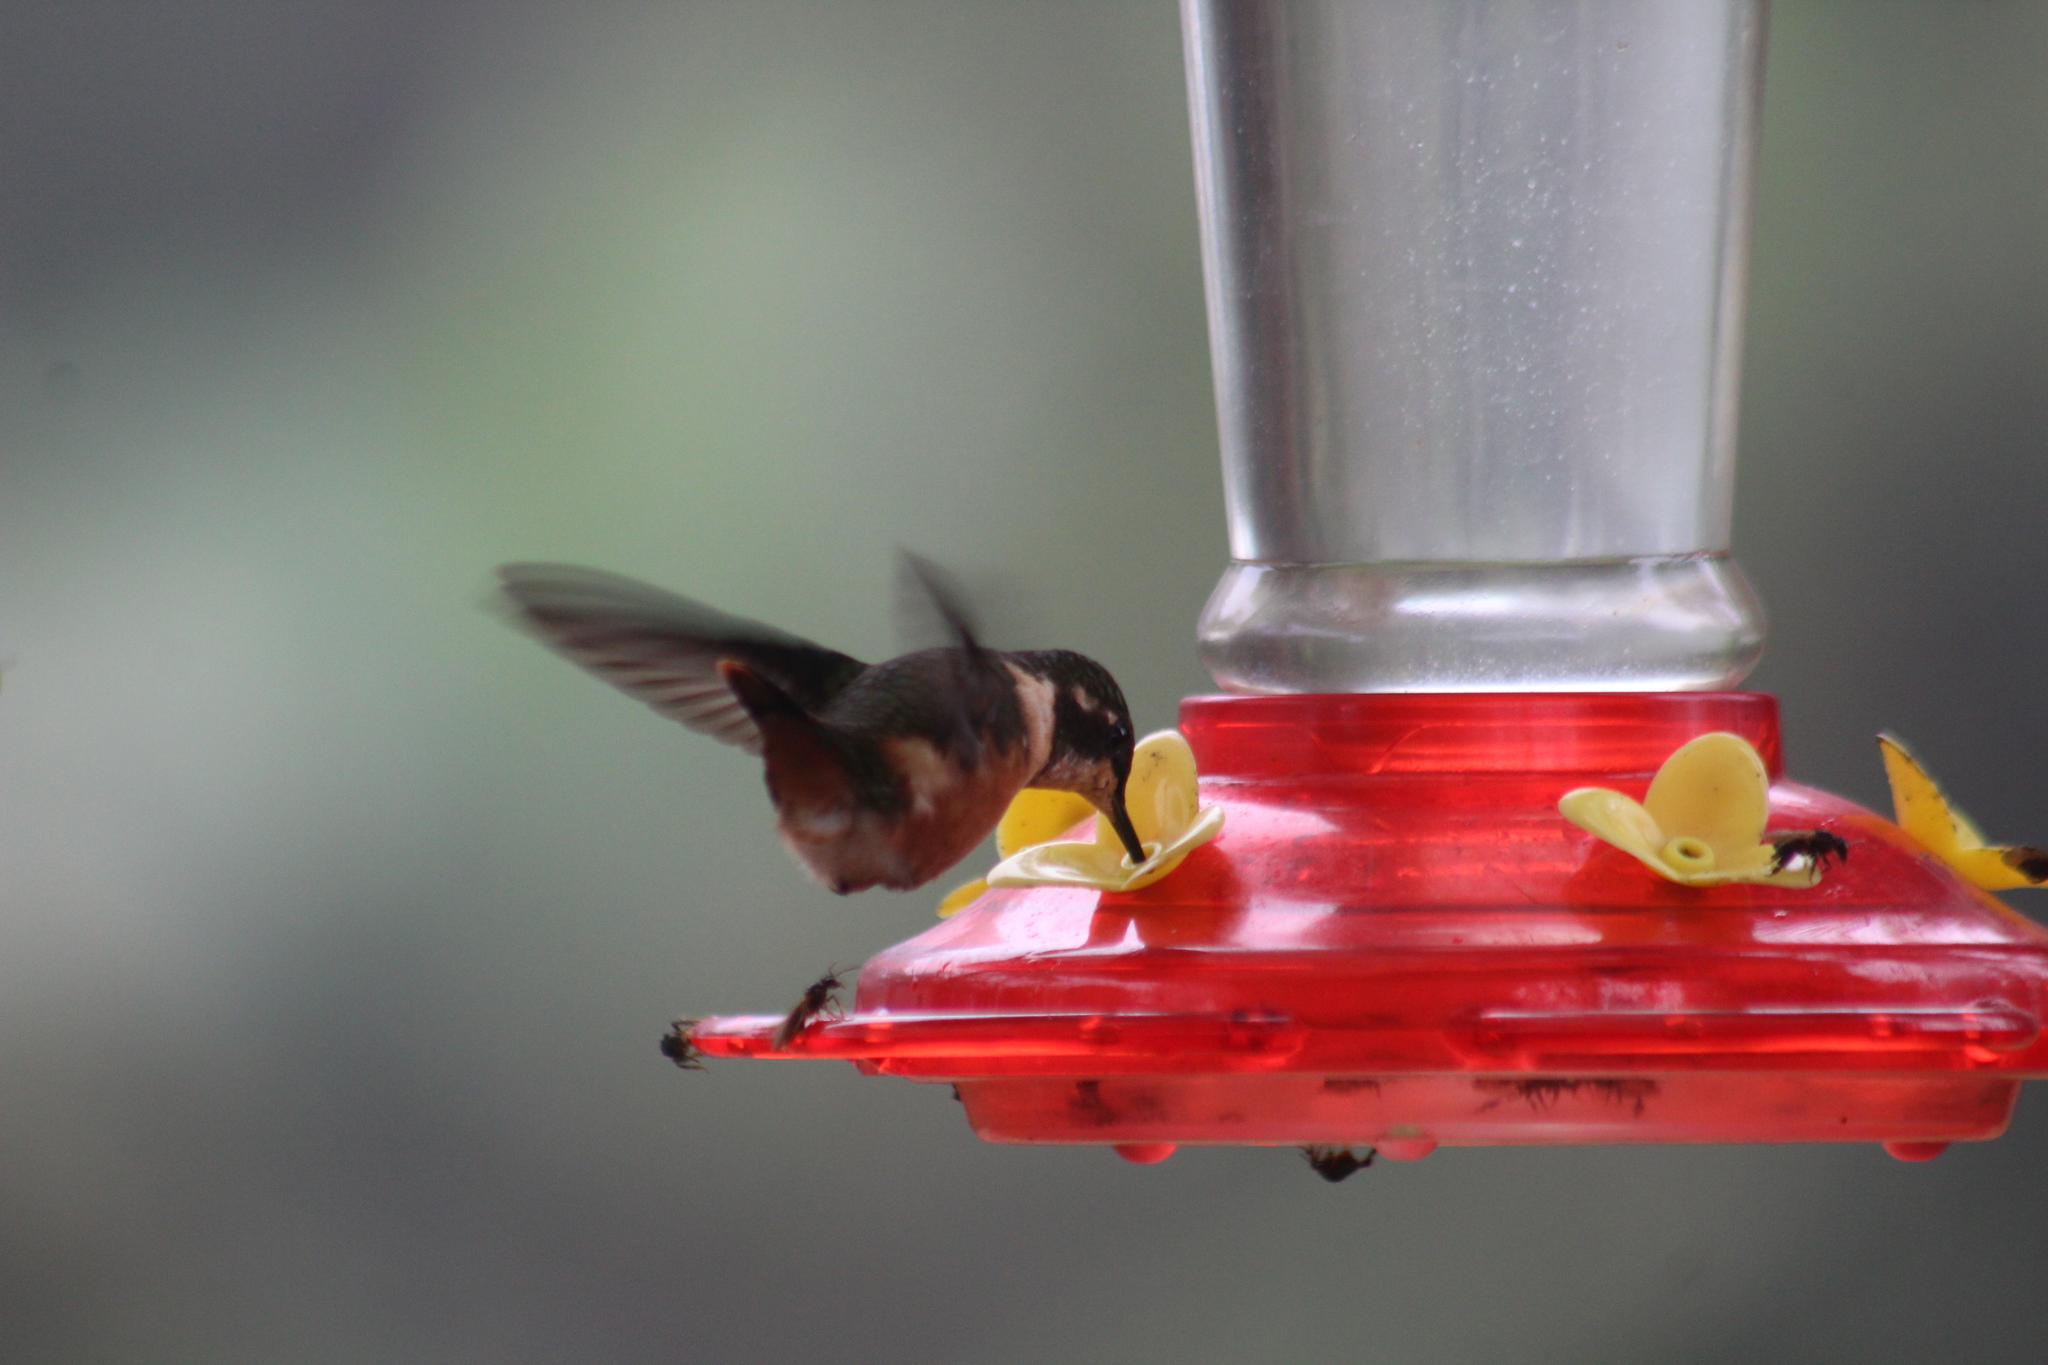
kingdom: Animalia
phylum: Chordata
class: Aves
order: Apodiformes
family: Trochilidae
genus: Calliphlox
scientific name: Calliphlox mitchellii
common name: Purple-throated woodstar
